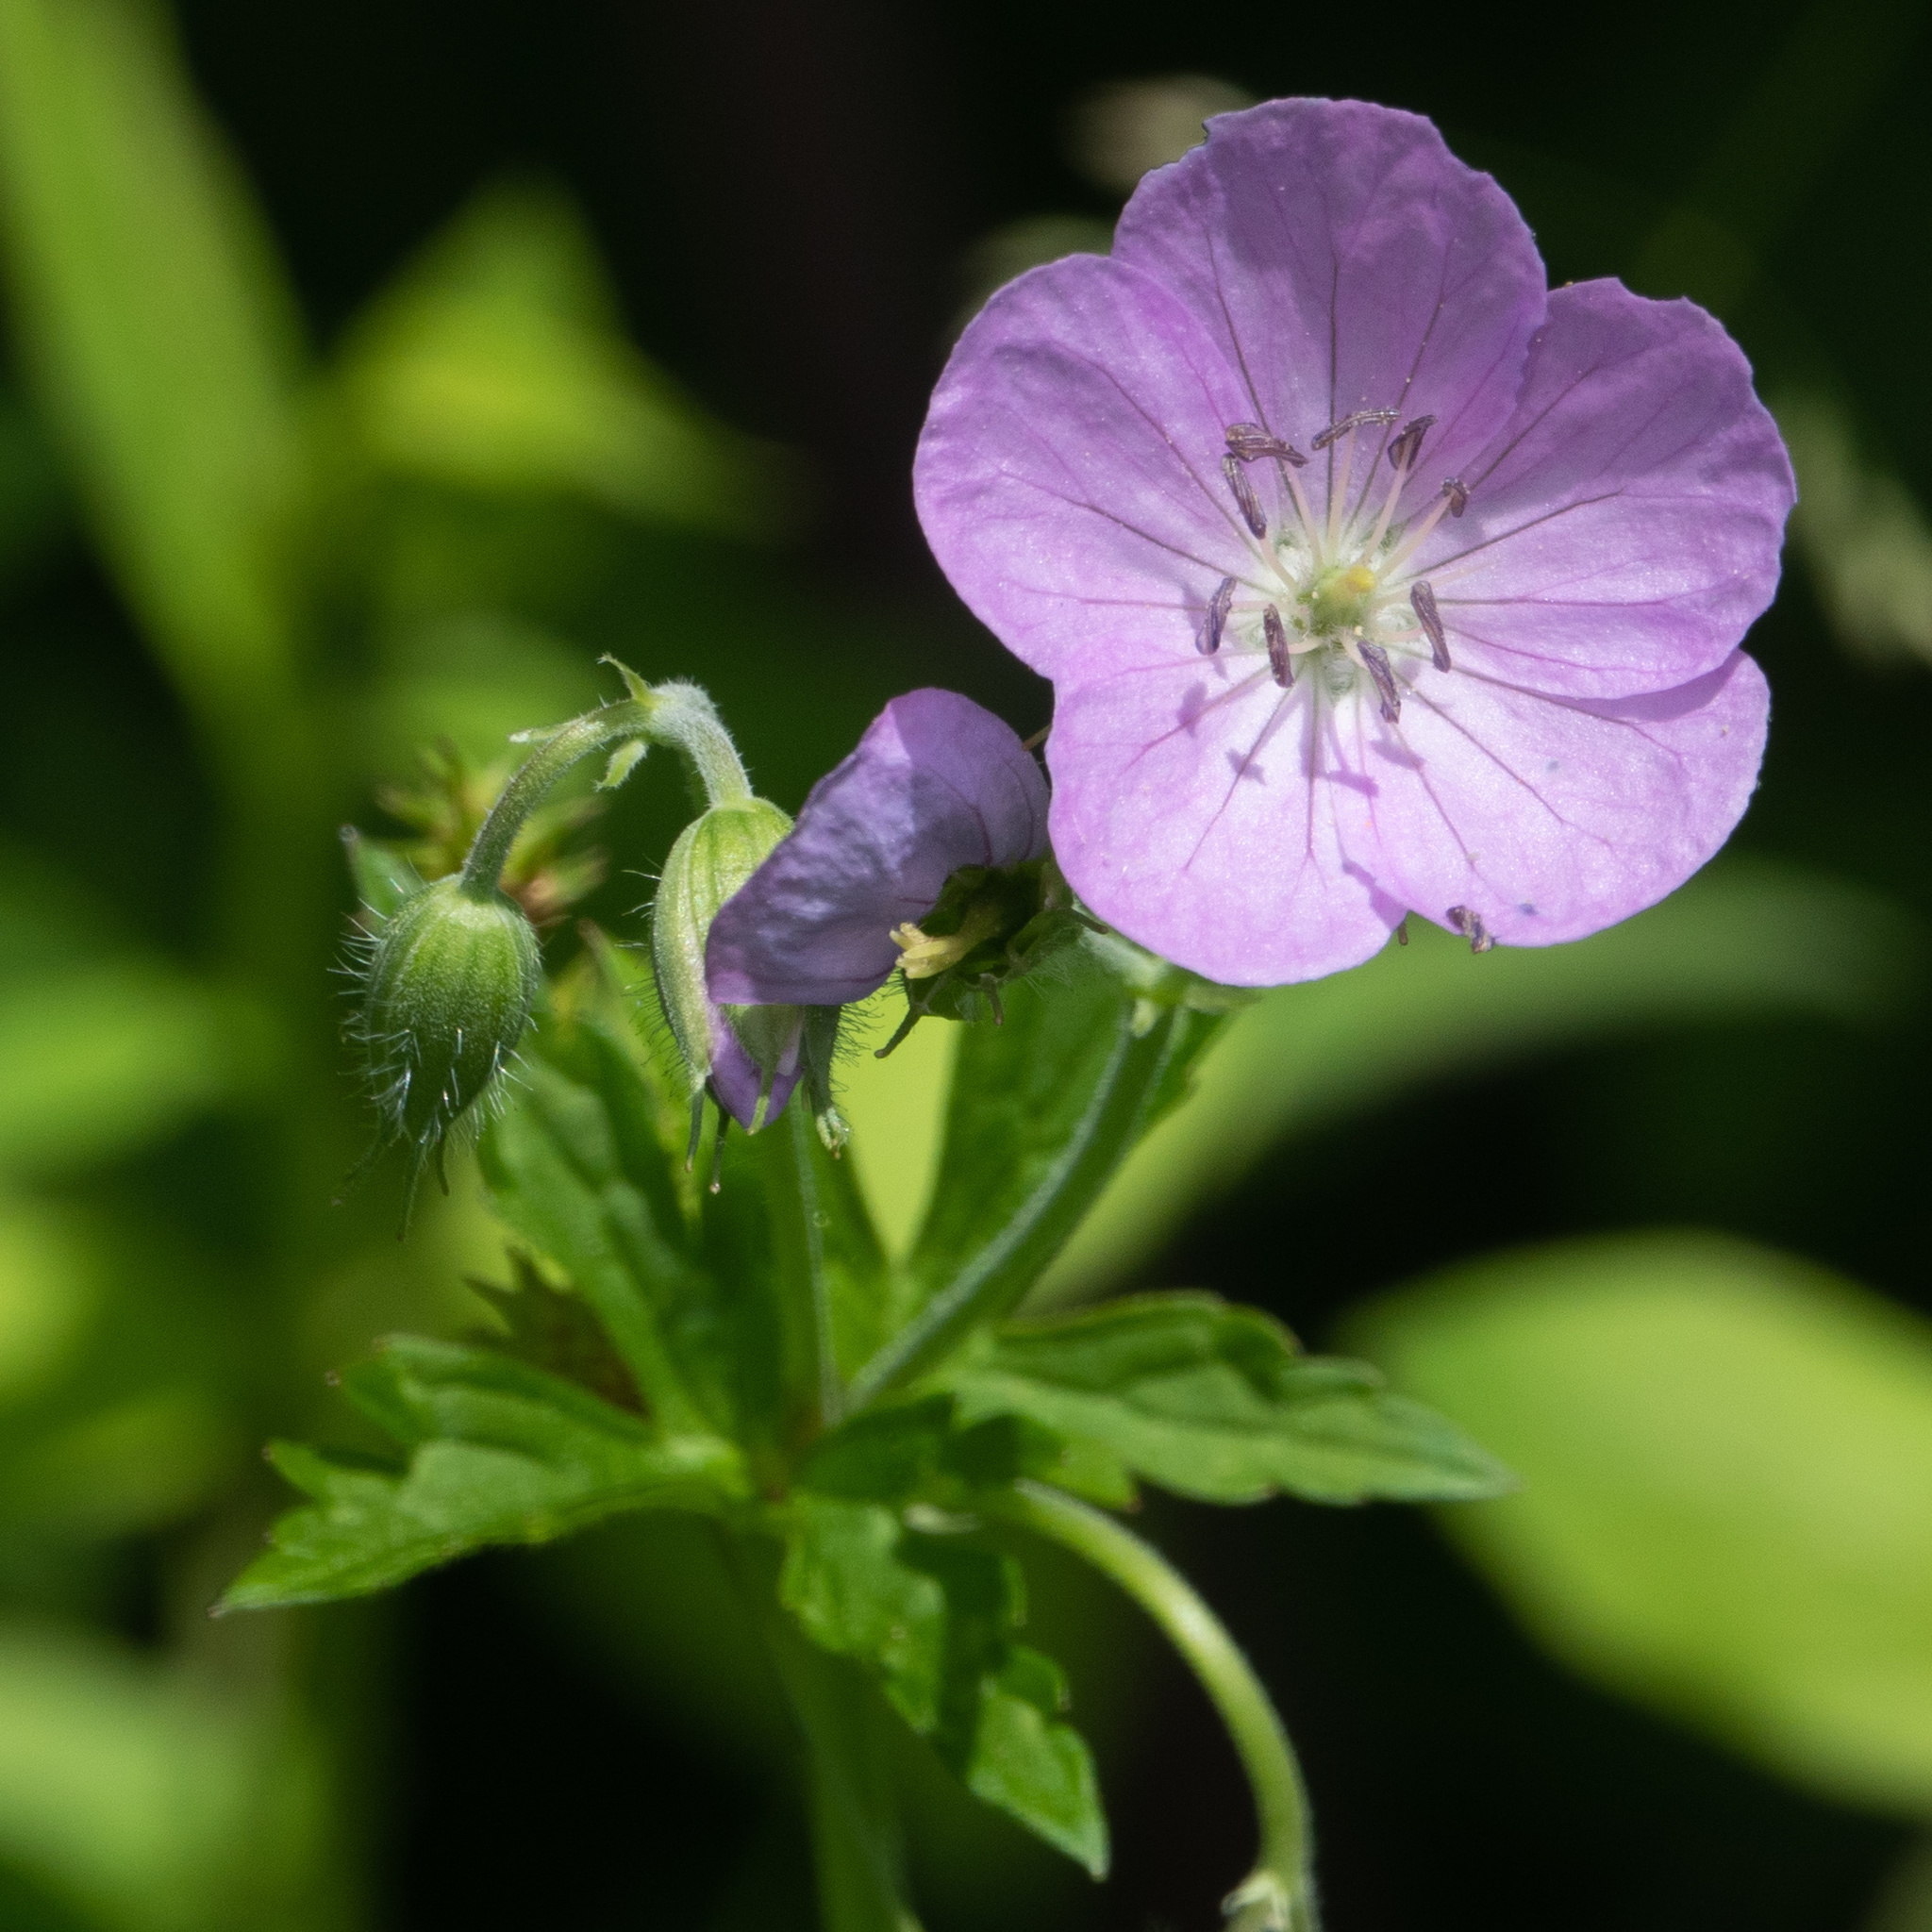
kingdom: Plantae
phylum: Tracheophyta
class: Magnoliopsida
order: Geraniales
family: Geraniaceae
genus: Geranium
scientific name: Geranium maculatum
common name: Spotted geranium
